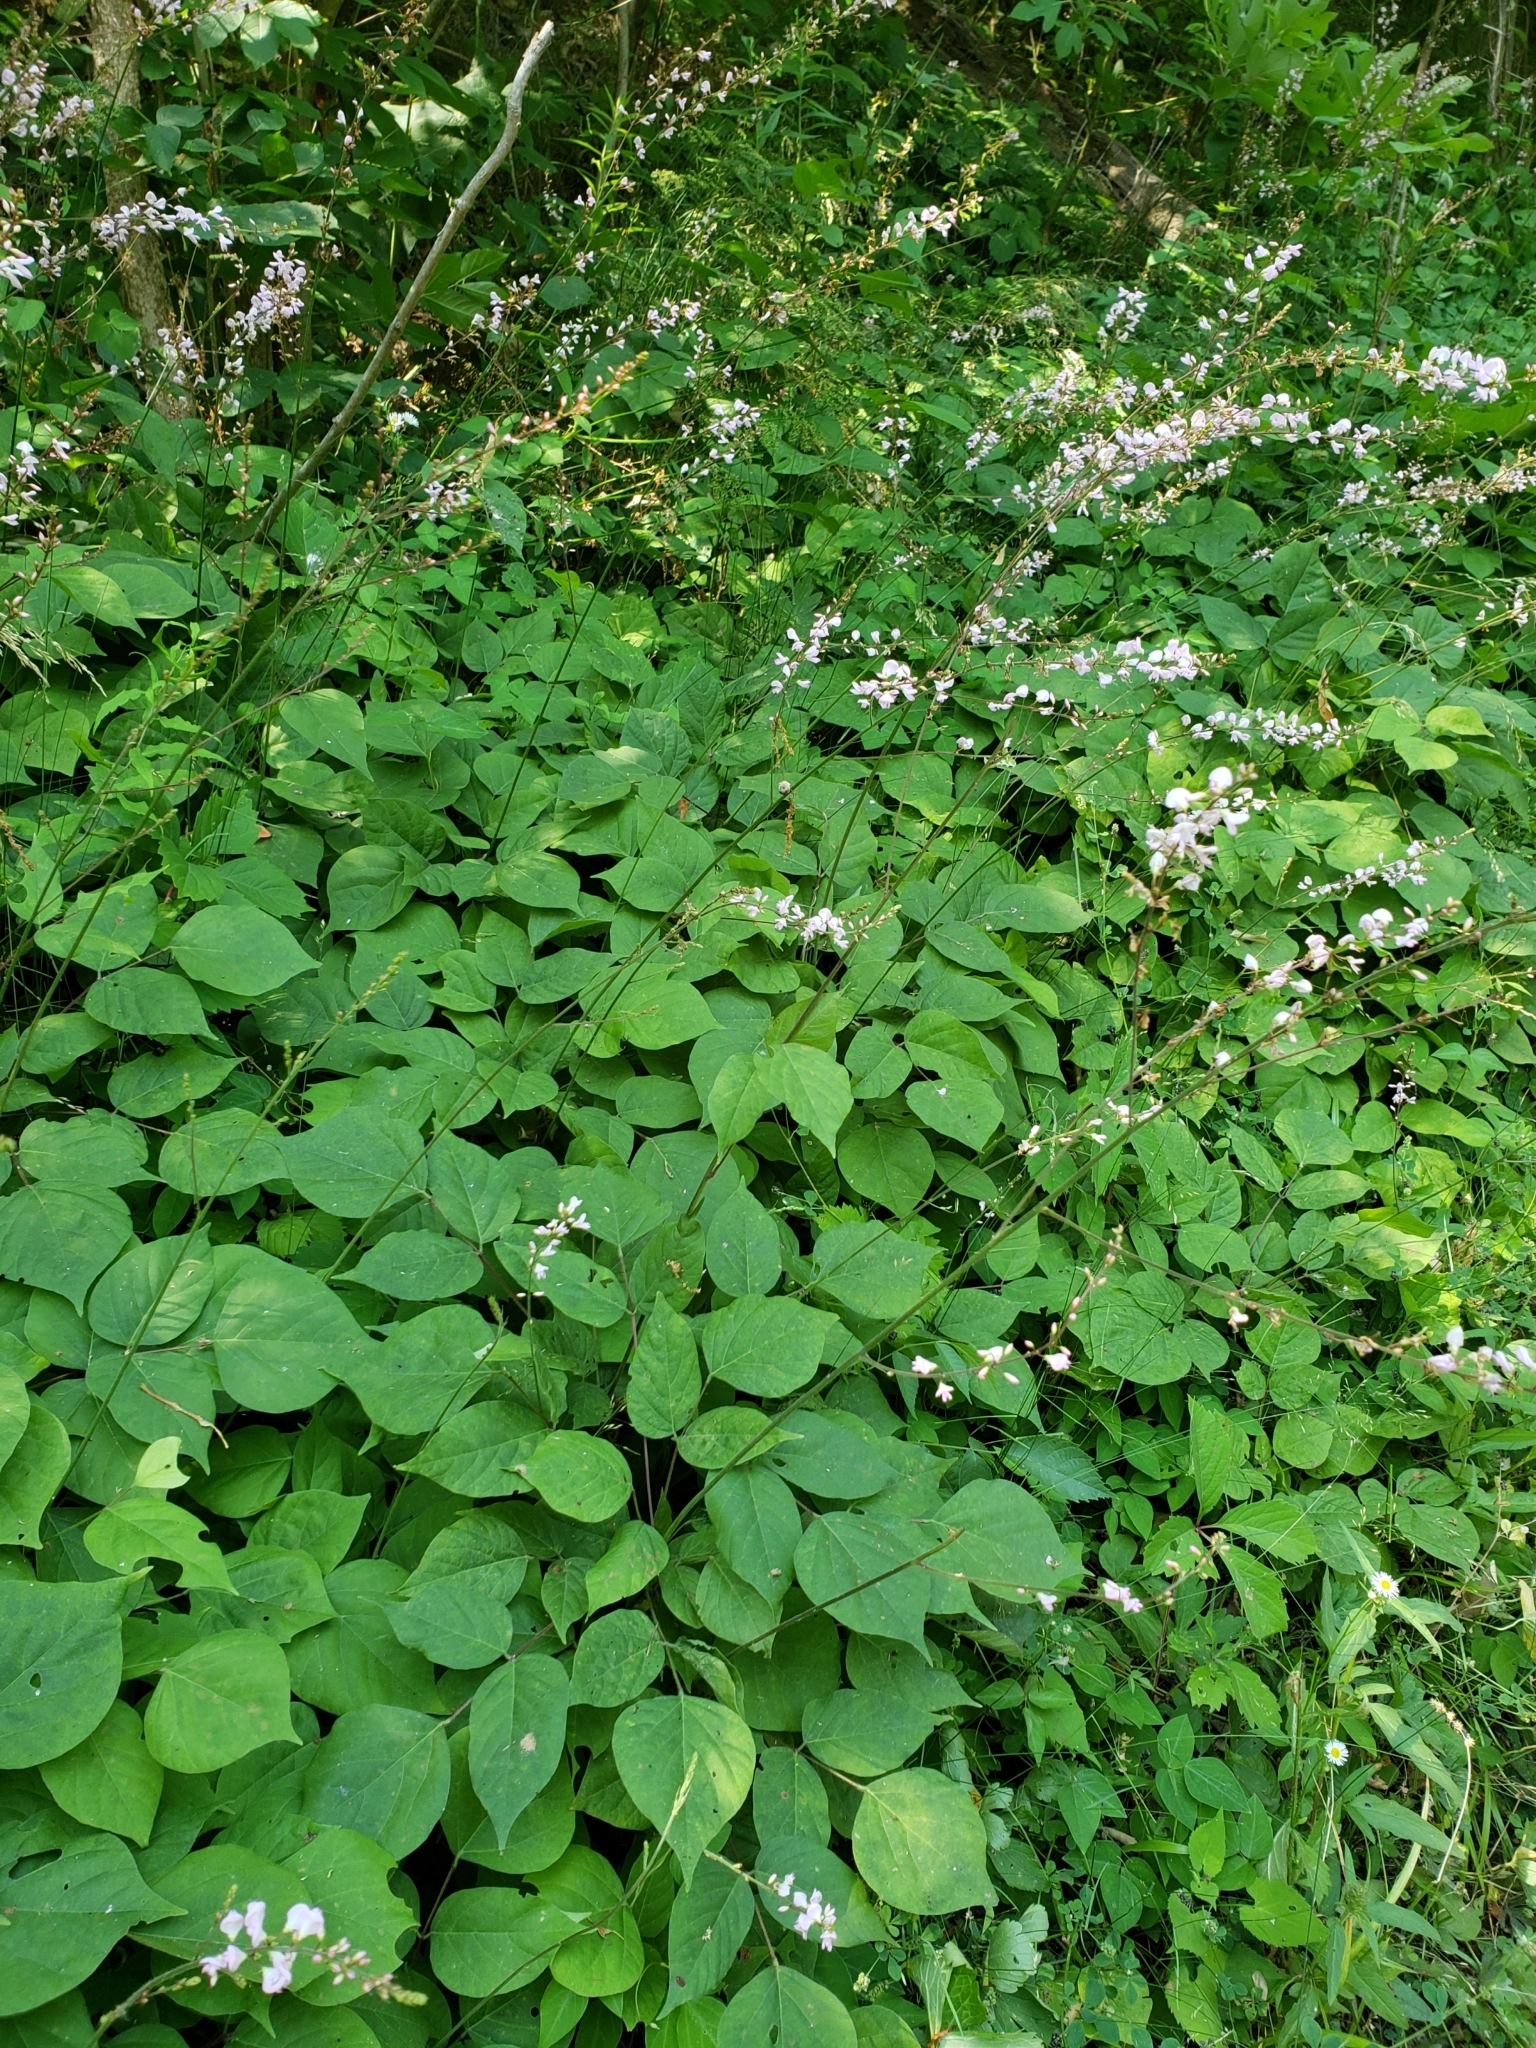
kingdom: Plantae
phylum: Tracheophyta
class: Magnoliopsida
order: Fabales
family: Fabaceae
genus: Hylodesmum
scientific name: Hylodesmum glutinosum
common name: Clustered-leaved tick-trefoil
